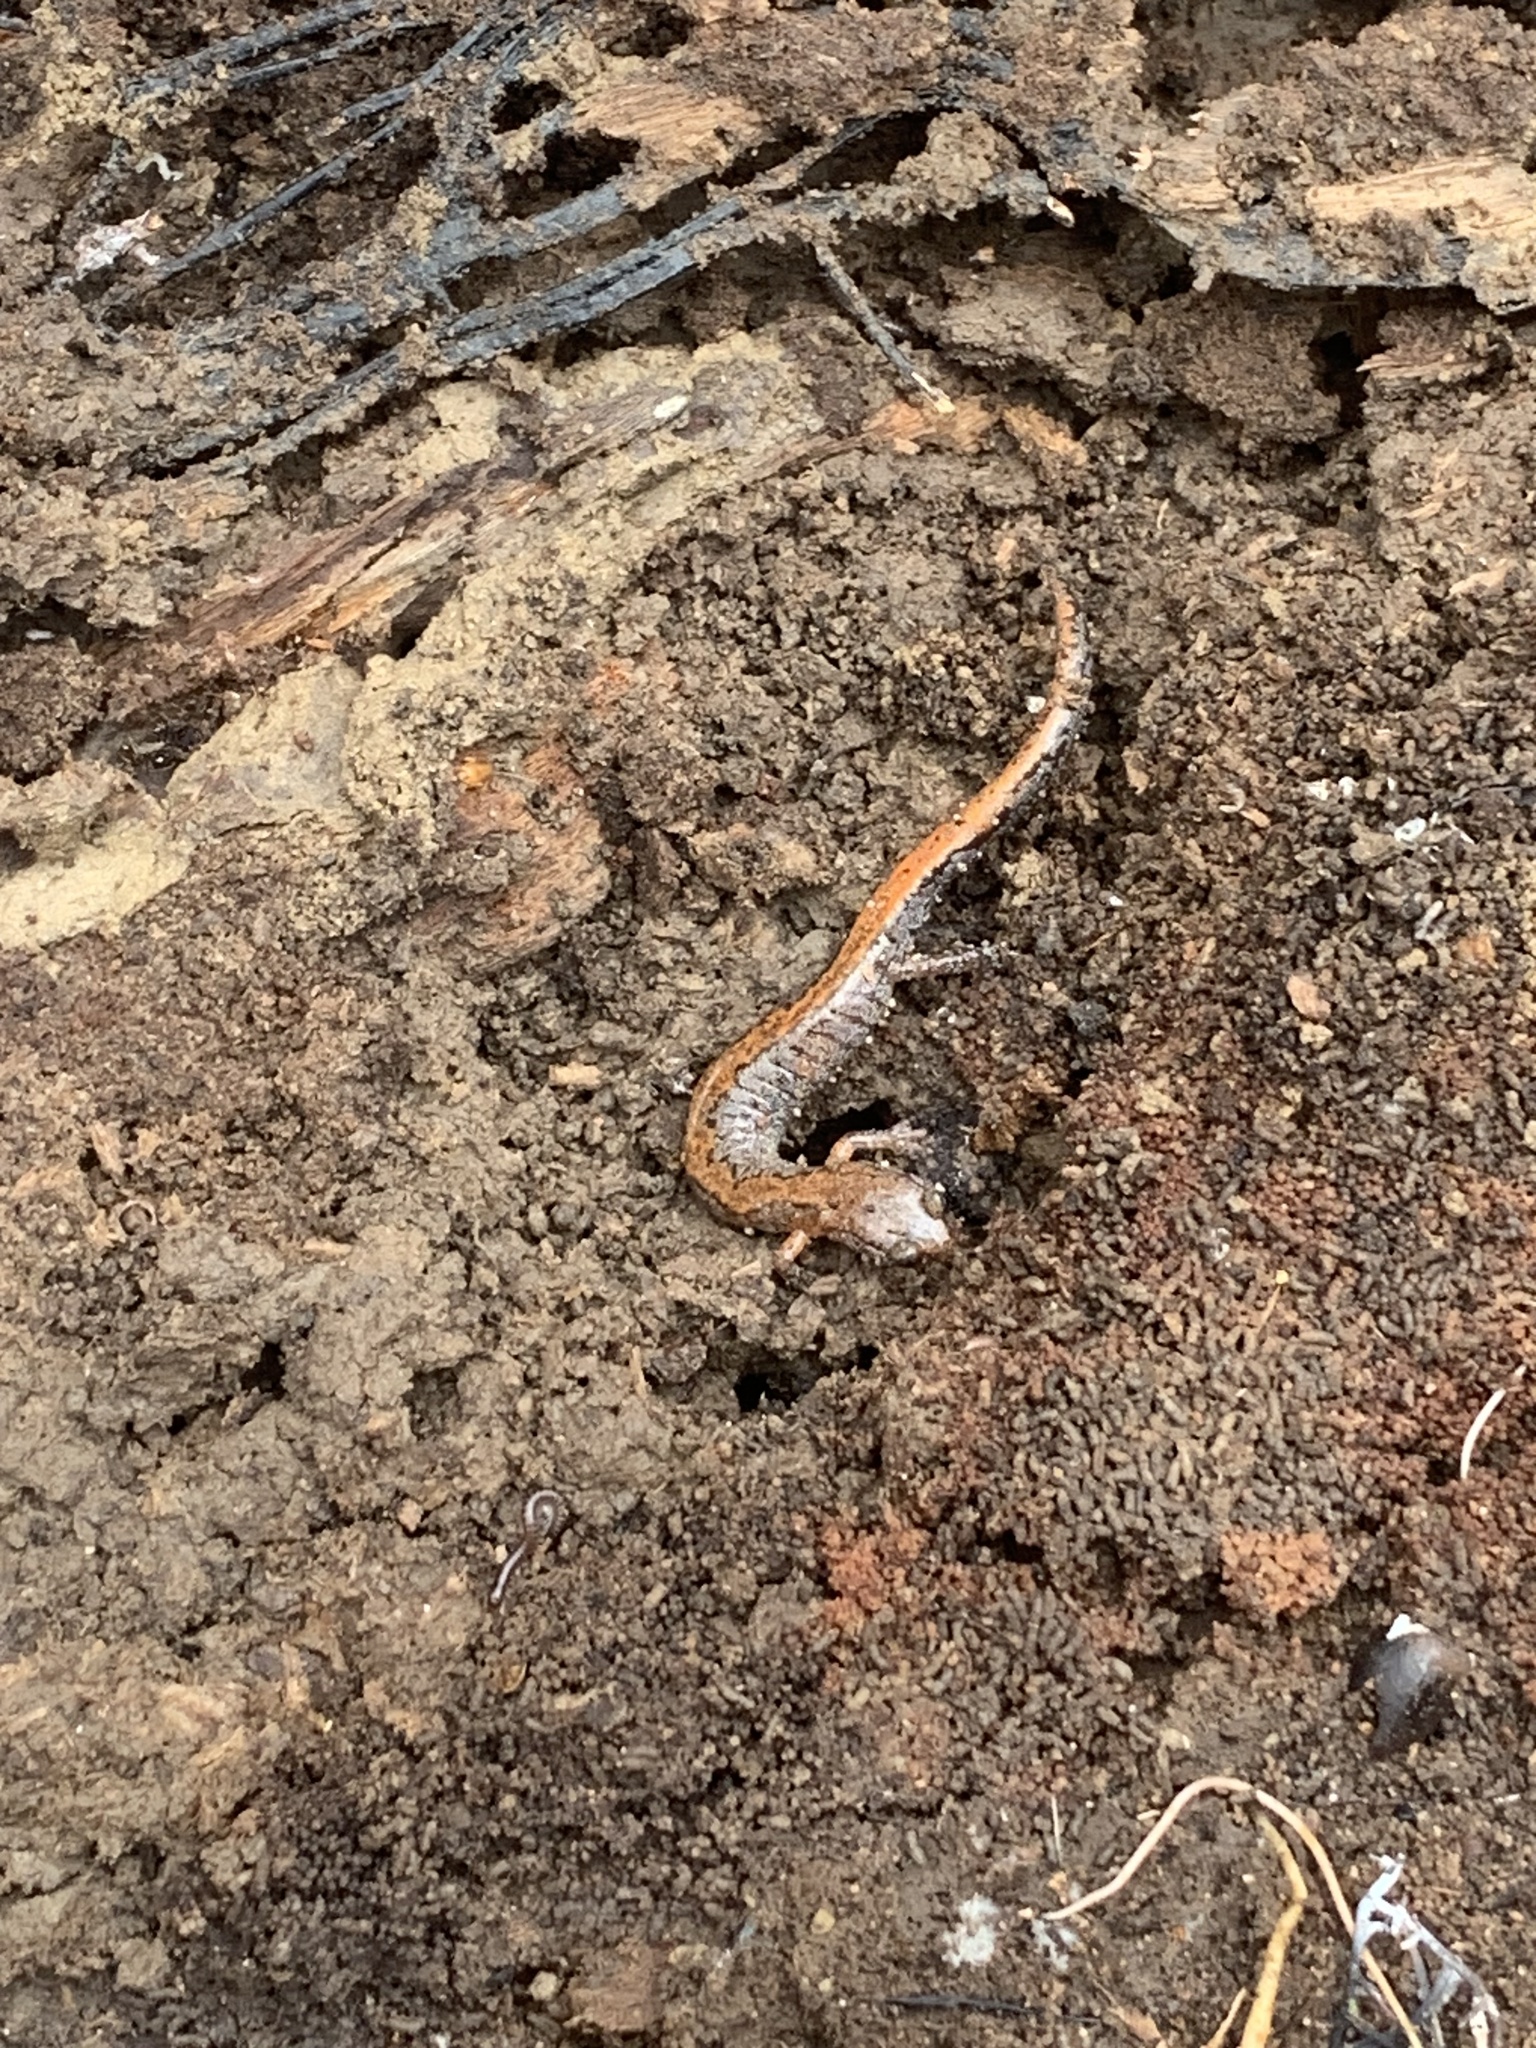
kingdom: Animalia
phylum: Chordata
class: Amphibia
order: Caudata
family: Plethodontidae
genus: Plethodon
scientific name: Plethodon dorsalis
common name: Northern zigzag salamander
